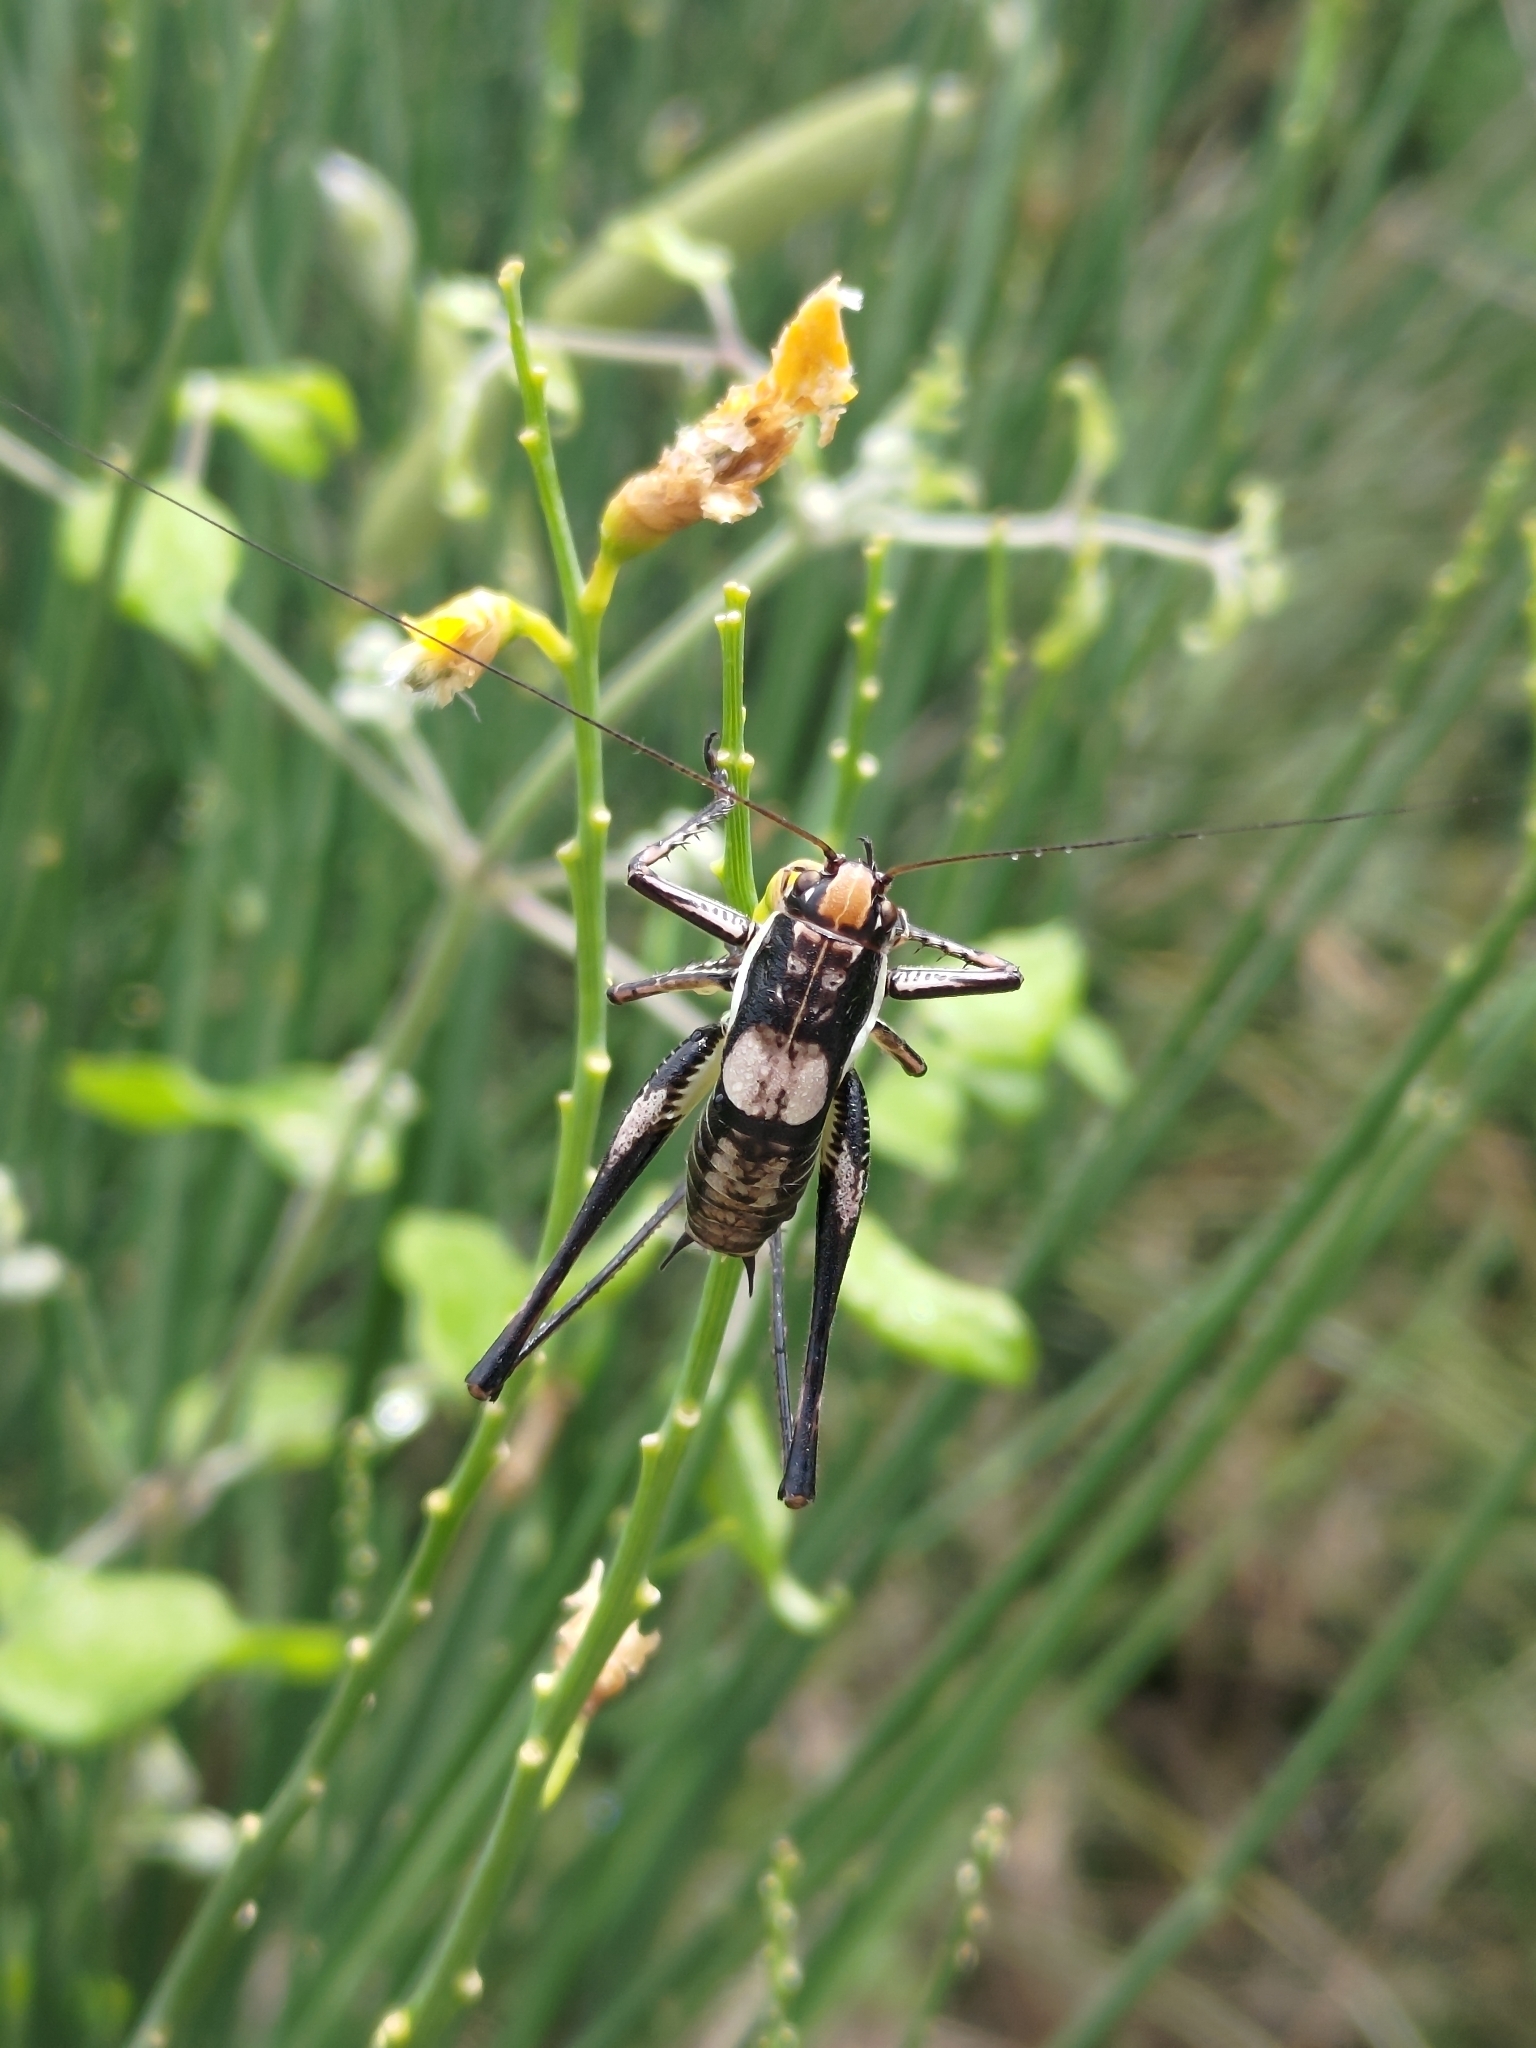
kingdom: Animalia
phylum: Arthropoda
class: Insecta
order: Orthoptera
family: Tettigoniidae
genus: Eupholidoptera
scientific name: Eupholidoptera schmidti
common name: Schmidt's marbled bush-cricket
